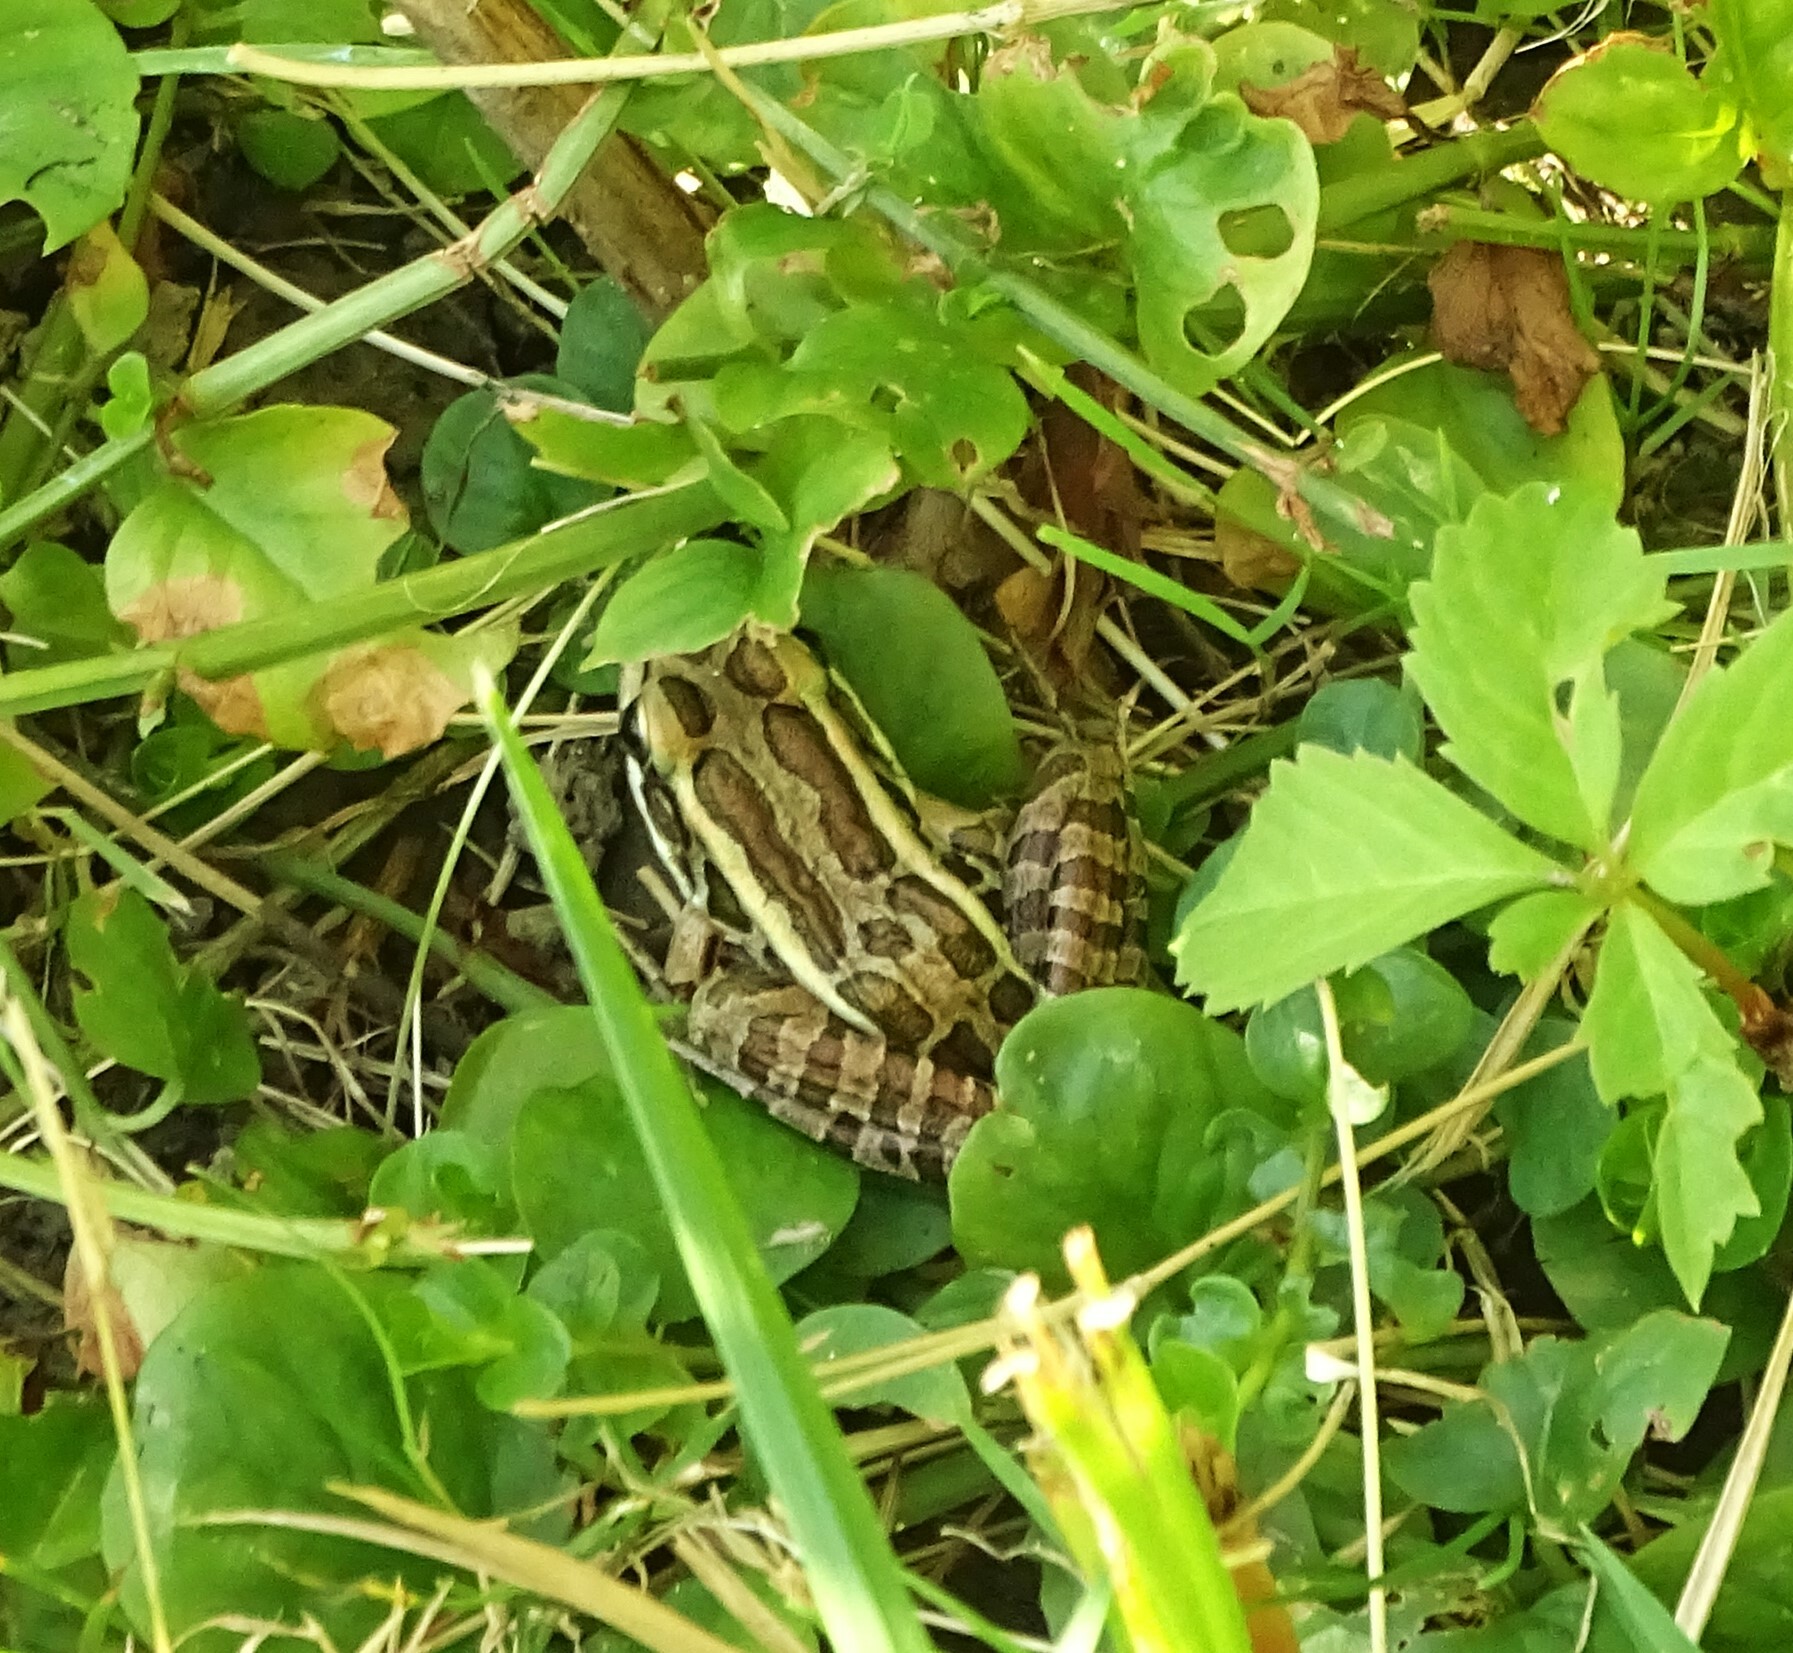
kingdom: Animalia
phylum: Chordata
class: Amphibia
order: Anura
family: Ranidae
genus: Lithobates
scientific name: Lithobates palustris
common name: Pickerel frog
